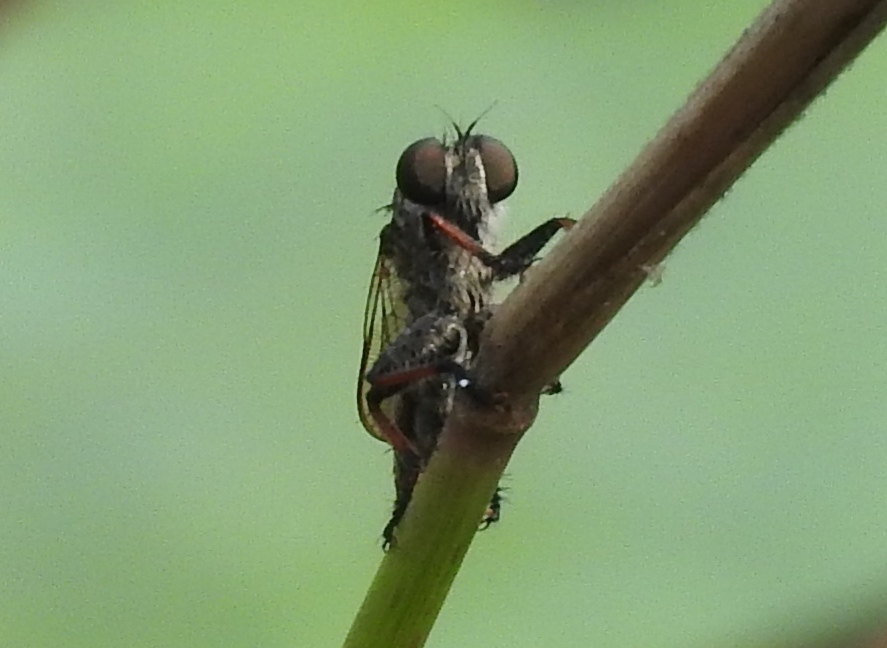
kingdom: Animalia
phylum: Arthropoda
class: Insecta
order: Diptera
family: Asilidae
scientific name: Asilidae
